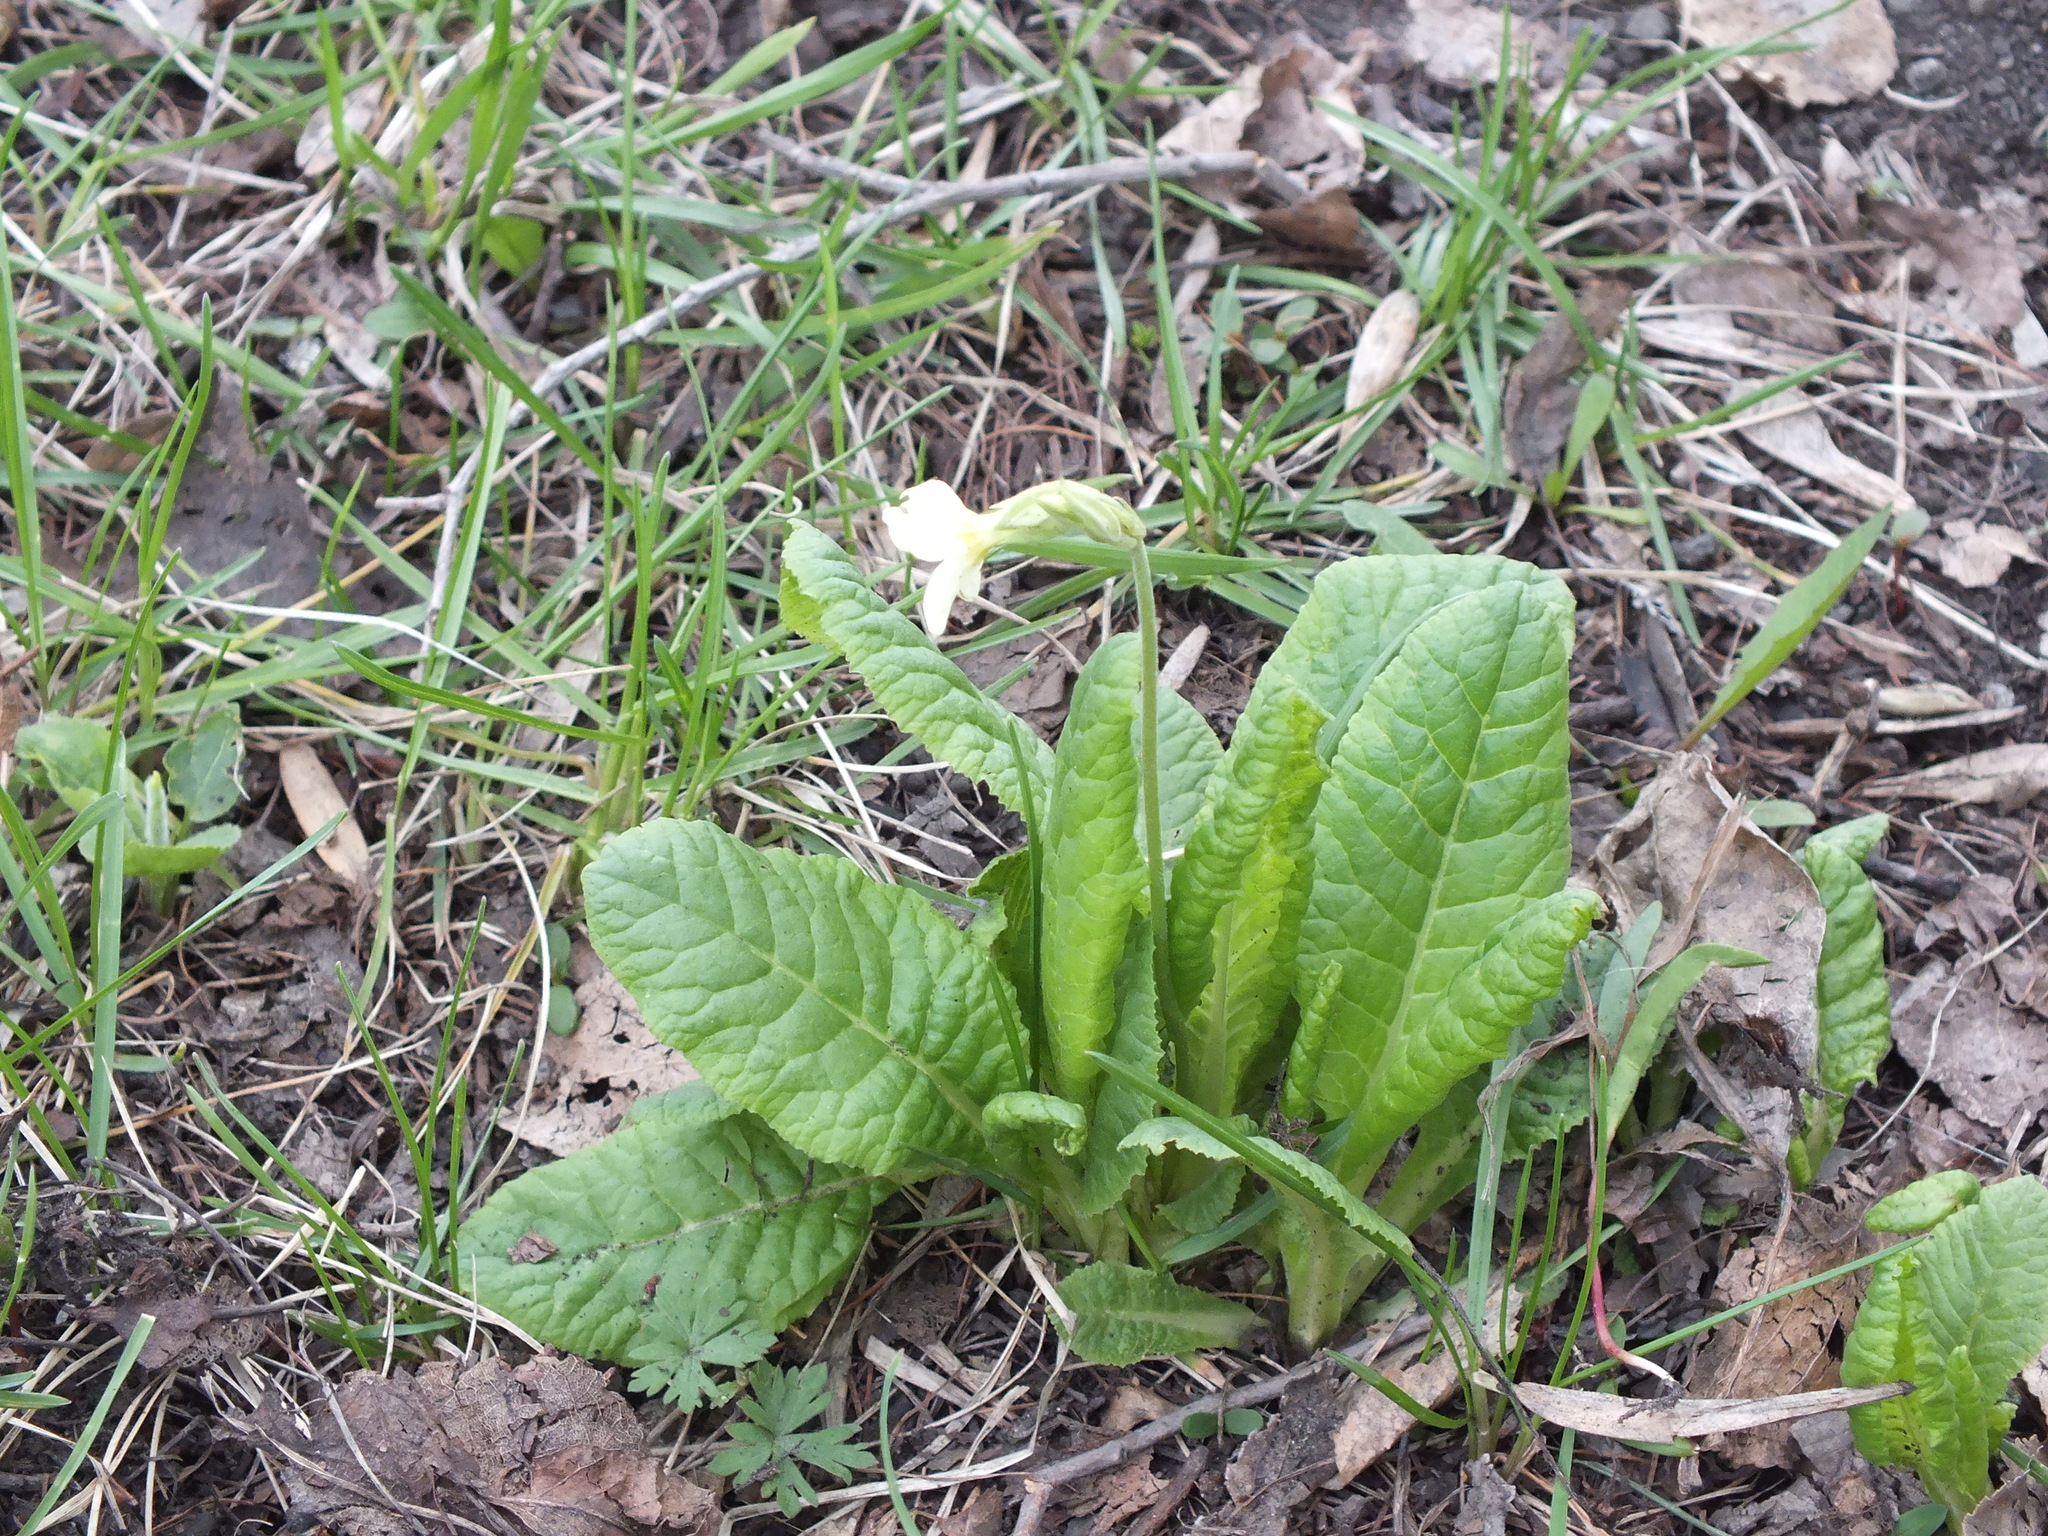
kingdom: Plantae
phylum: Tracheophyta
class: Magnoliopsida
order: Ericales
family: Primulaceae
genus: Primula
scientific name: Primula elatior
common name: Oxlip
